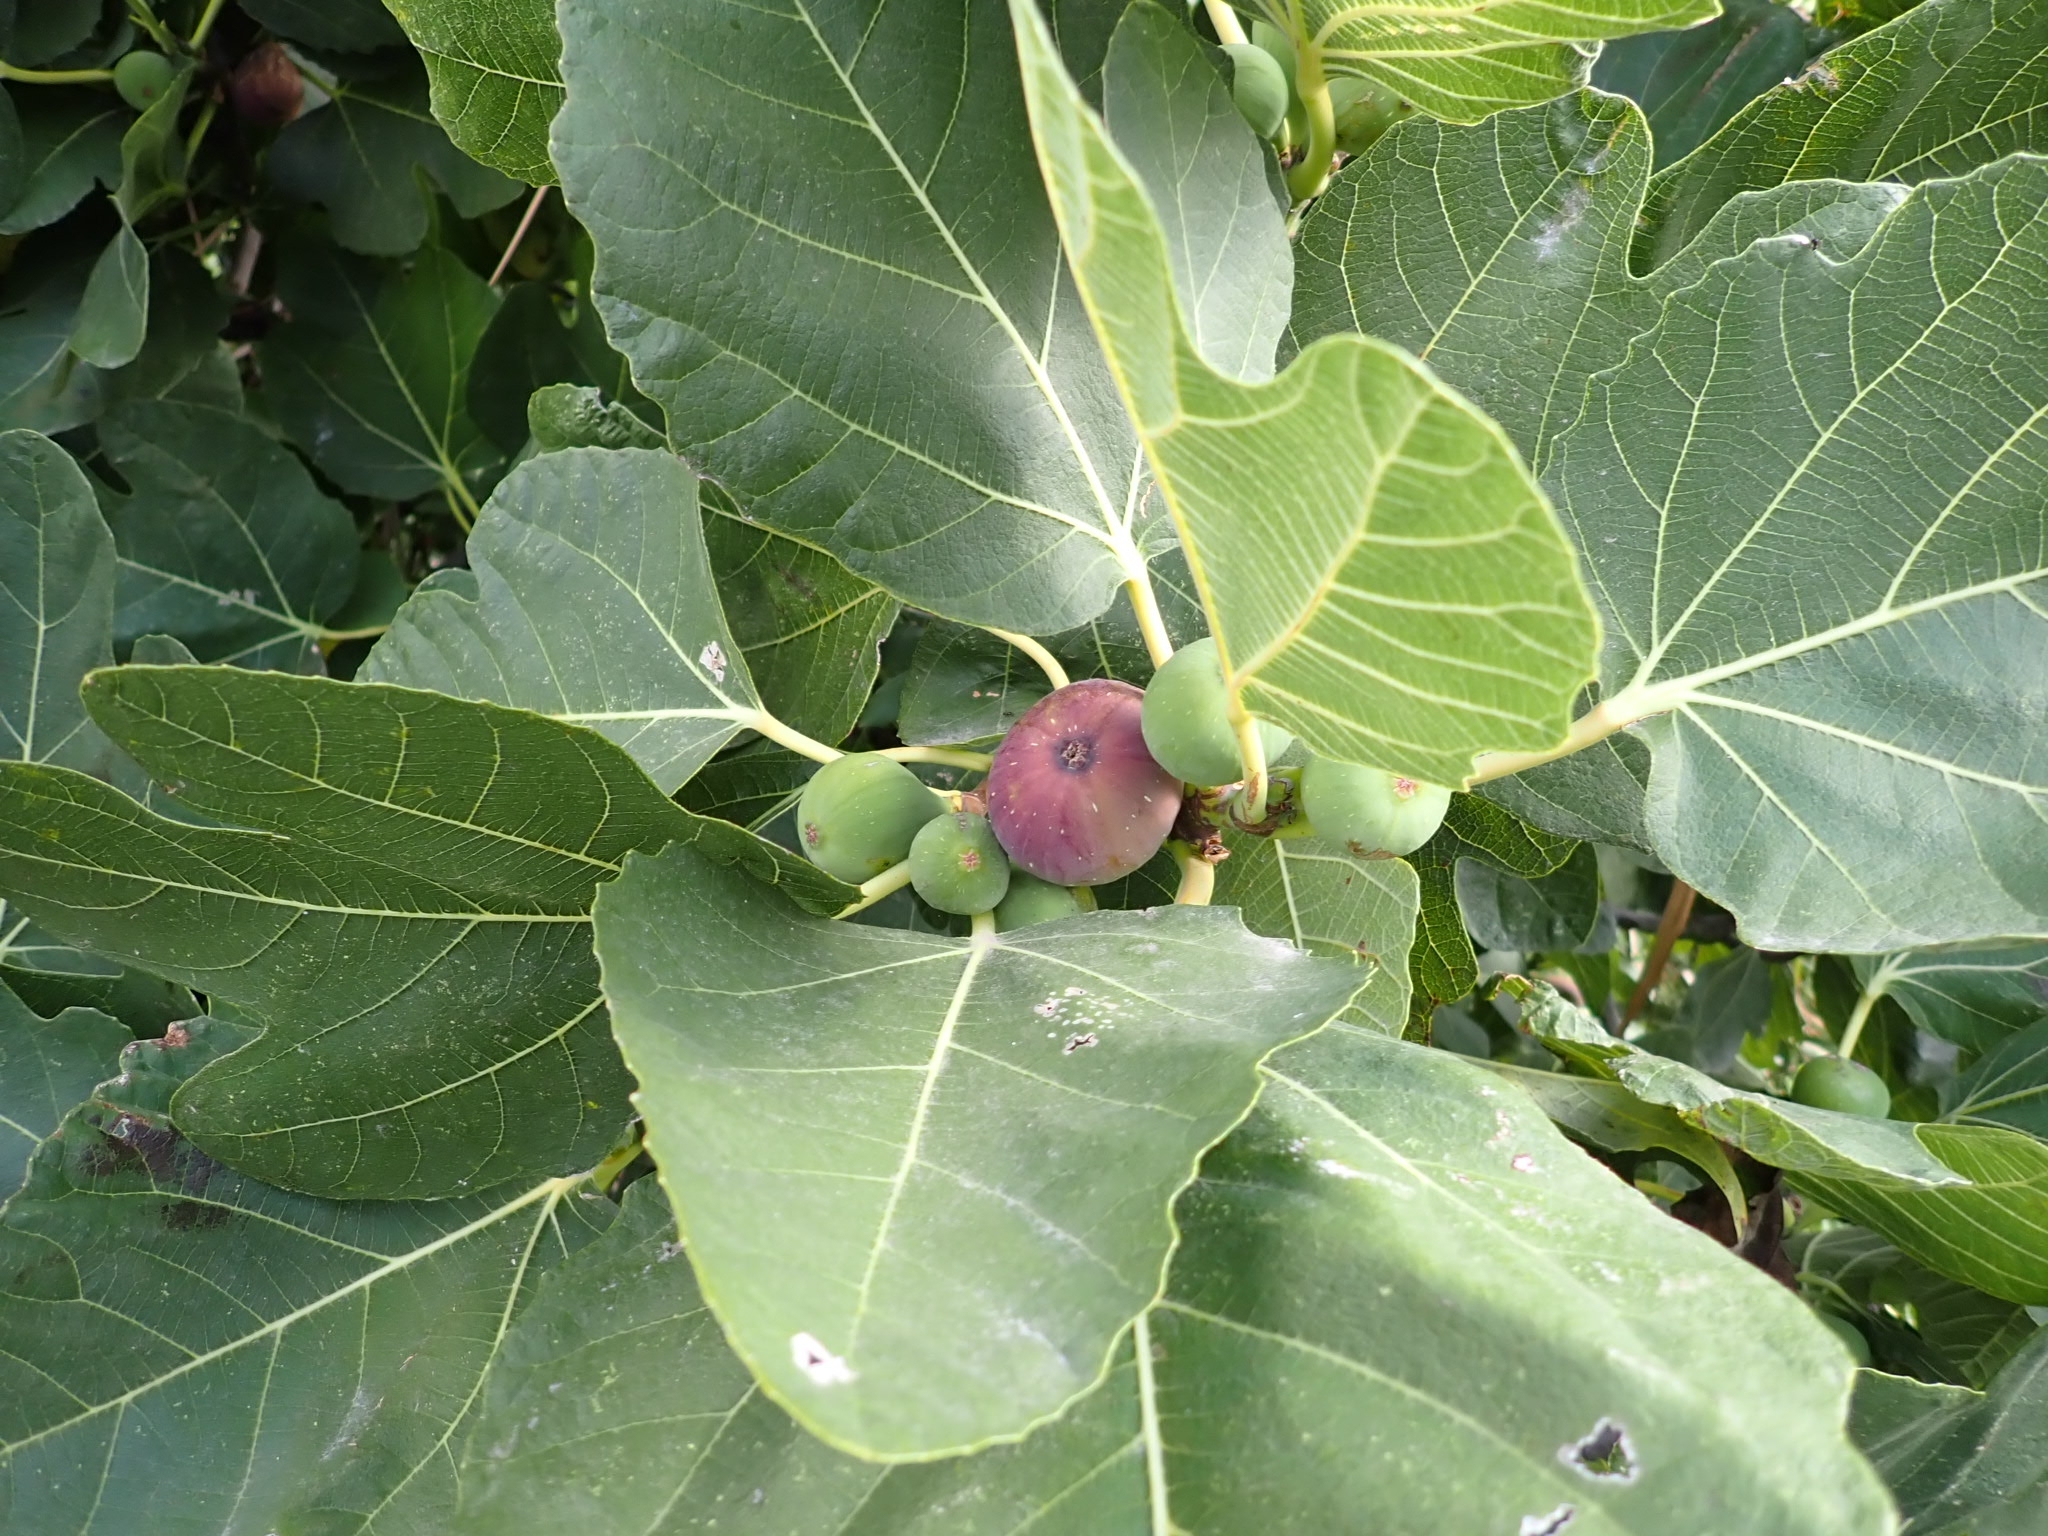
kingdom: Plantae
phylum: Tracheophyta
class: Magnoliopsida
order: Rosales
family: Moraceae
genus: Ficus
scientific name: Ficus carica
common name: Fig
